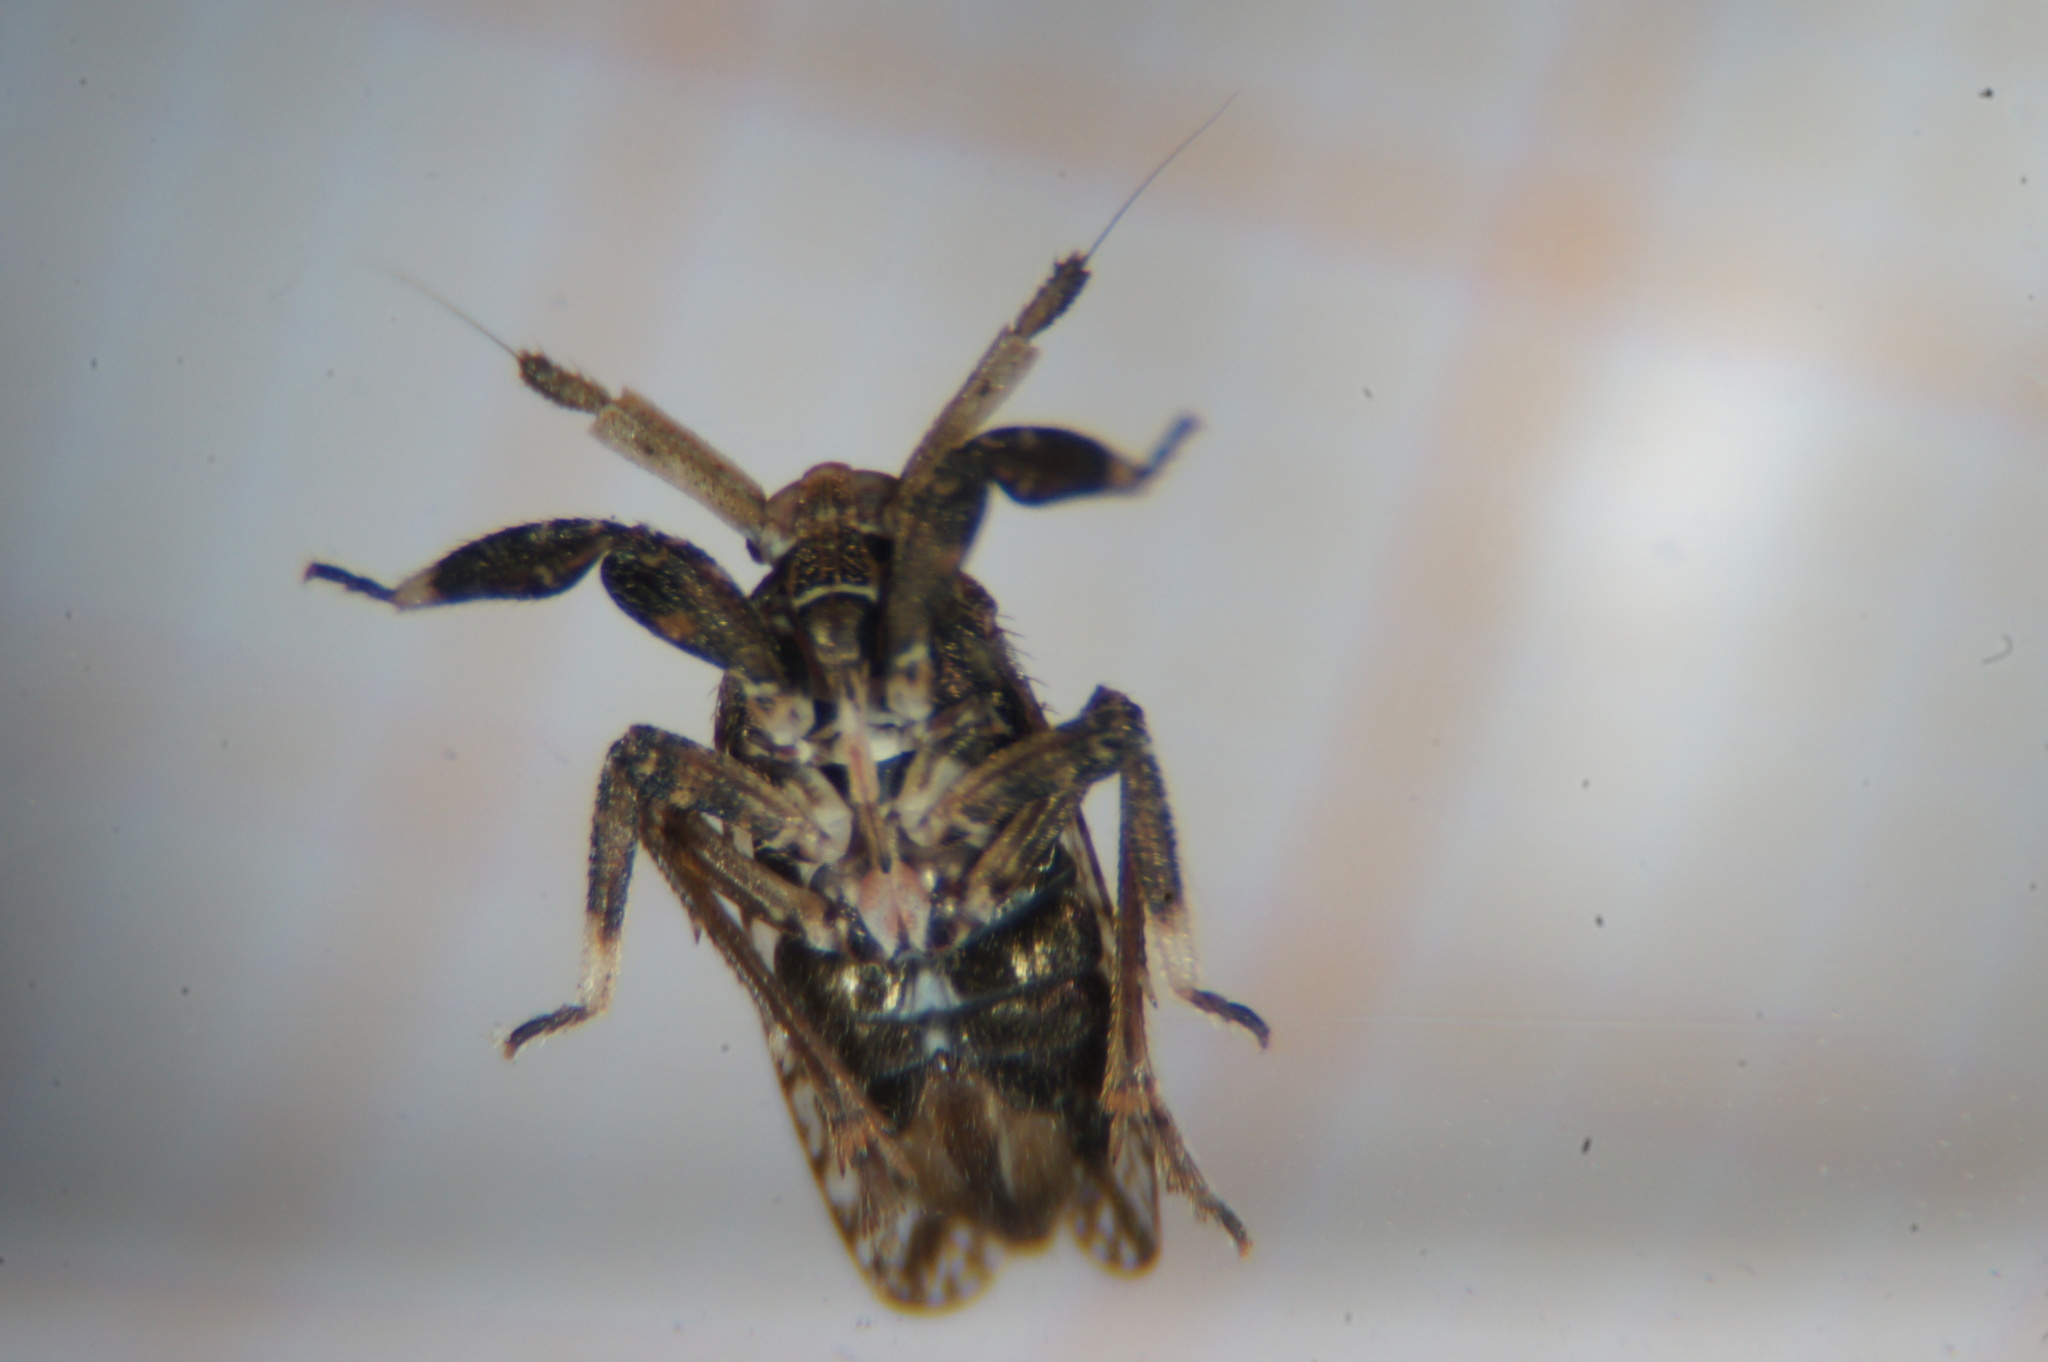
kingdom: Animalia
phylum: Arthropoda
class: Insecta
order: Hemiptera
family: Delphacidae
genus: Asiraca
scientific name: Asiraca clavicornis
